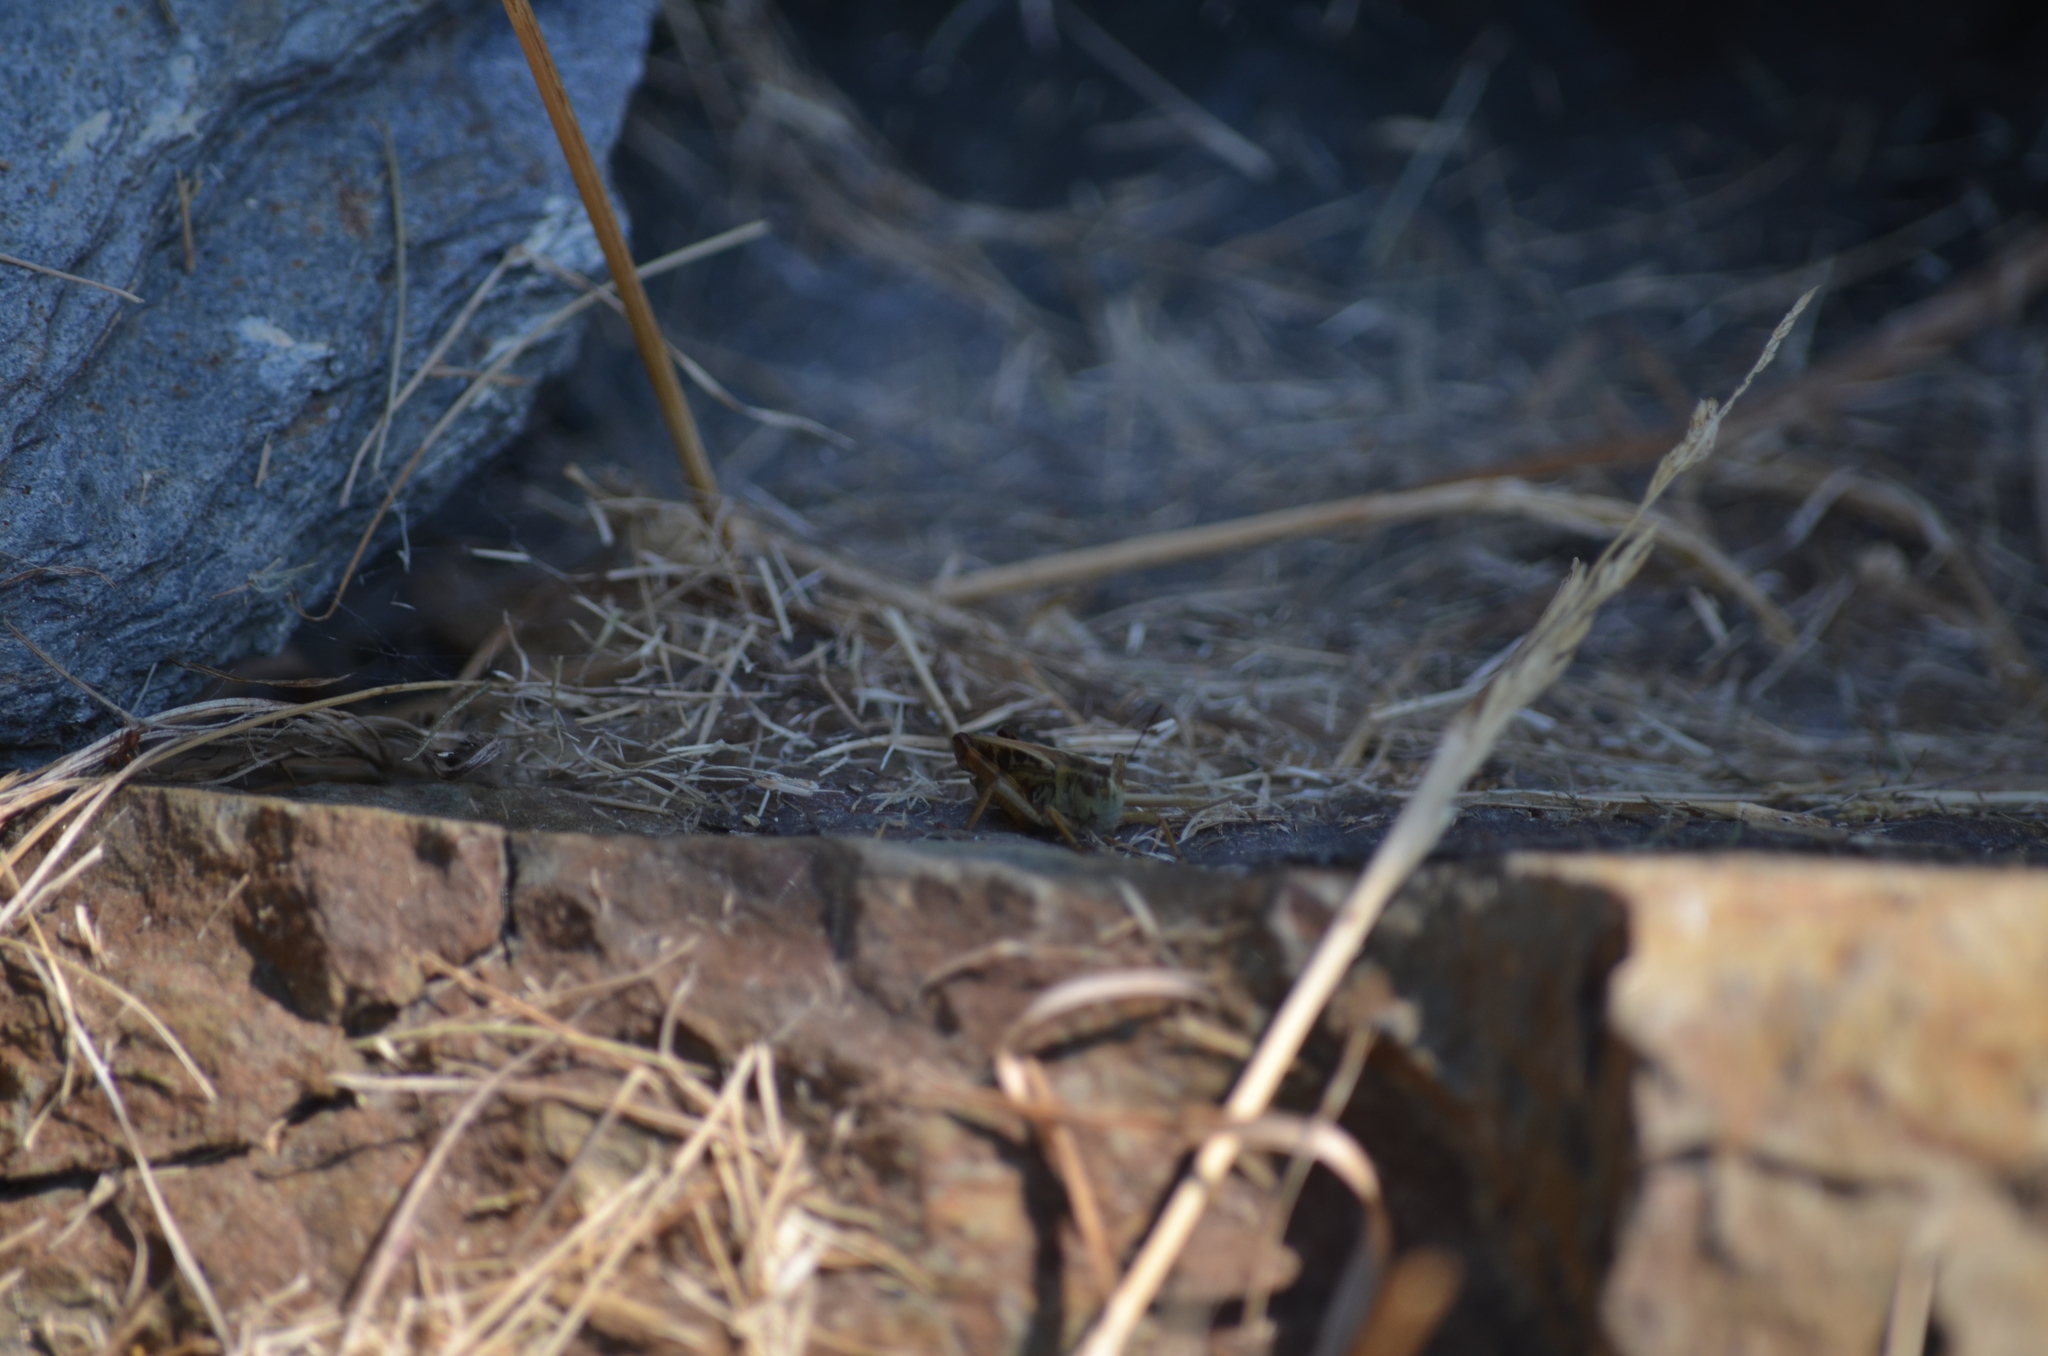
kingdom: Animalia
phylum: Arthropoda
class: Insecta
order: Orthoptera
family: Acrididae
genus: Camnula
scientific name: Camnula pellucida
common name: Clear-winged grasshopper
